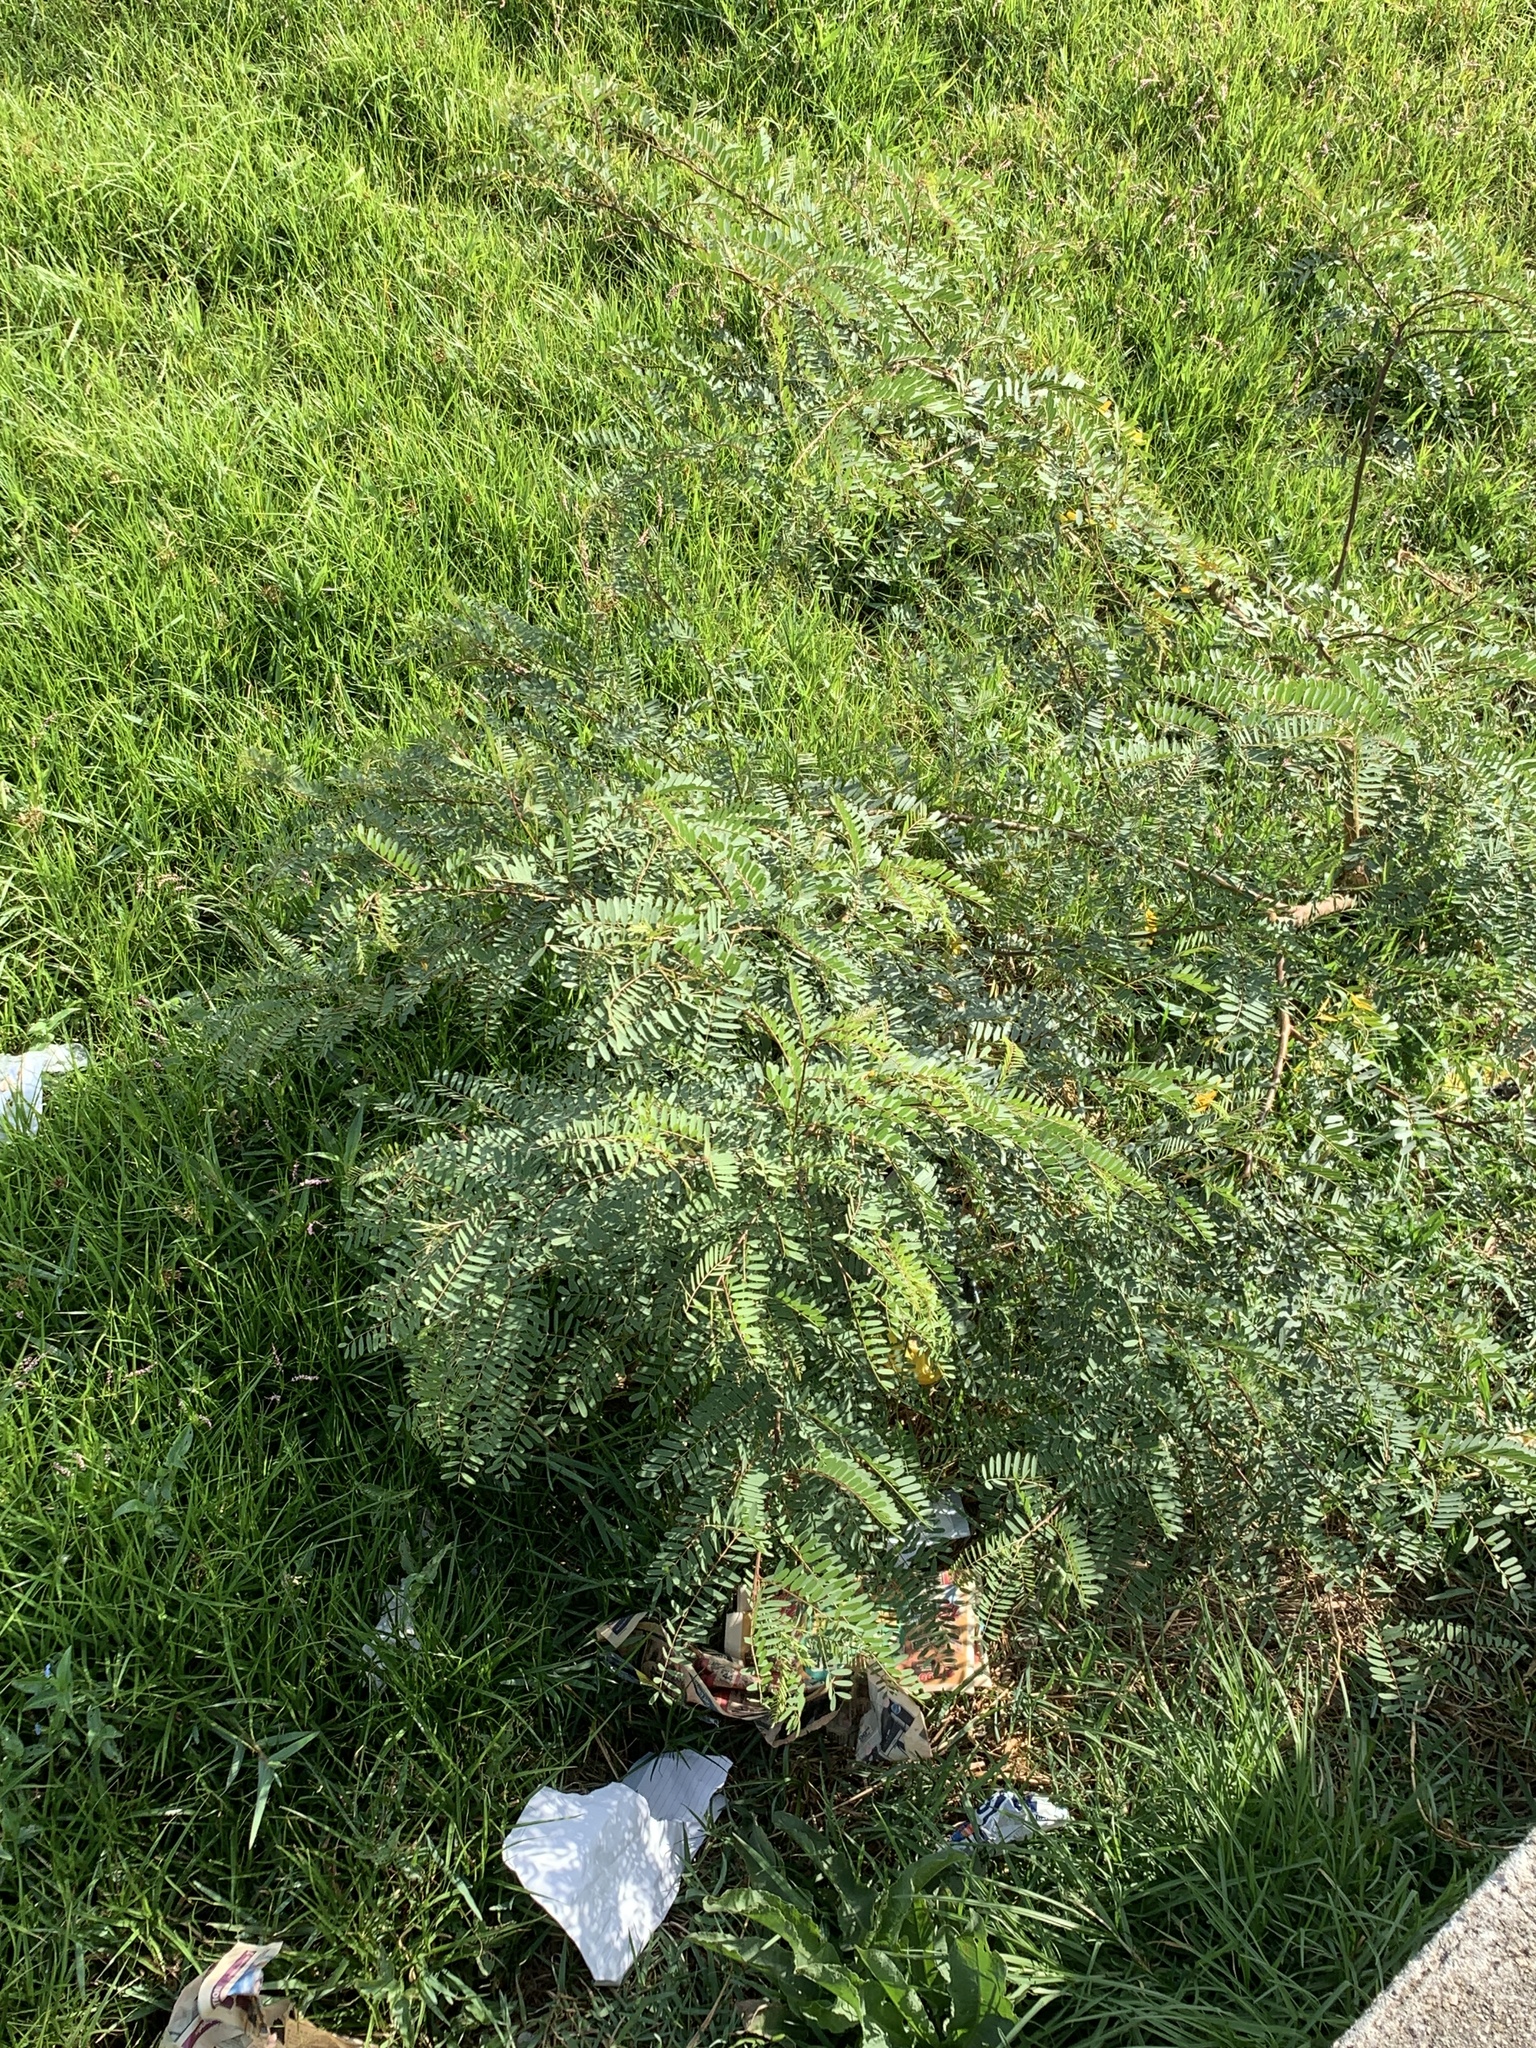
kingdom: Plantae
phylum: Tracheophyta
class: Magnoliopsida
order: Fabales
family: Fabaceae
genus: Sesbania
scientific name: Sesbania punicea
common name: Rattlebox
